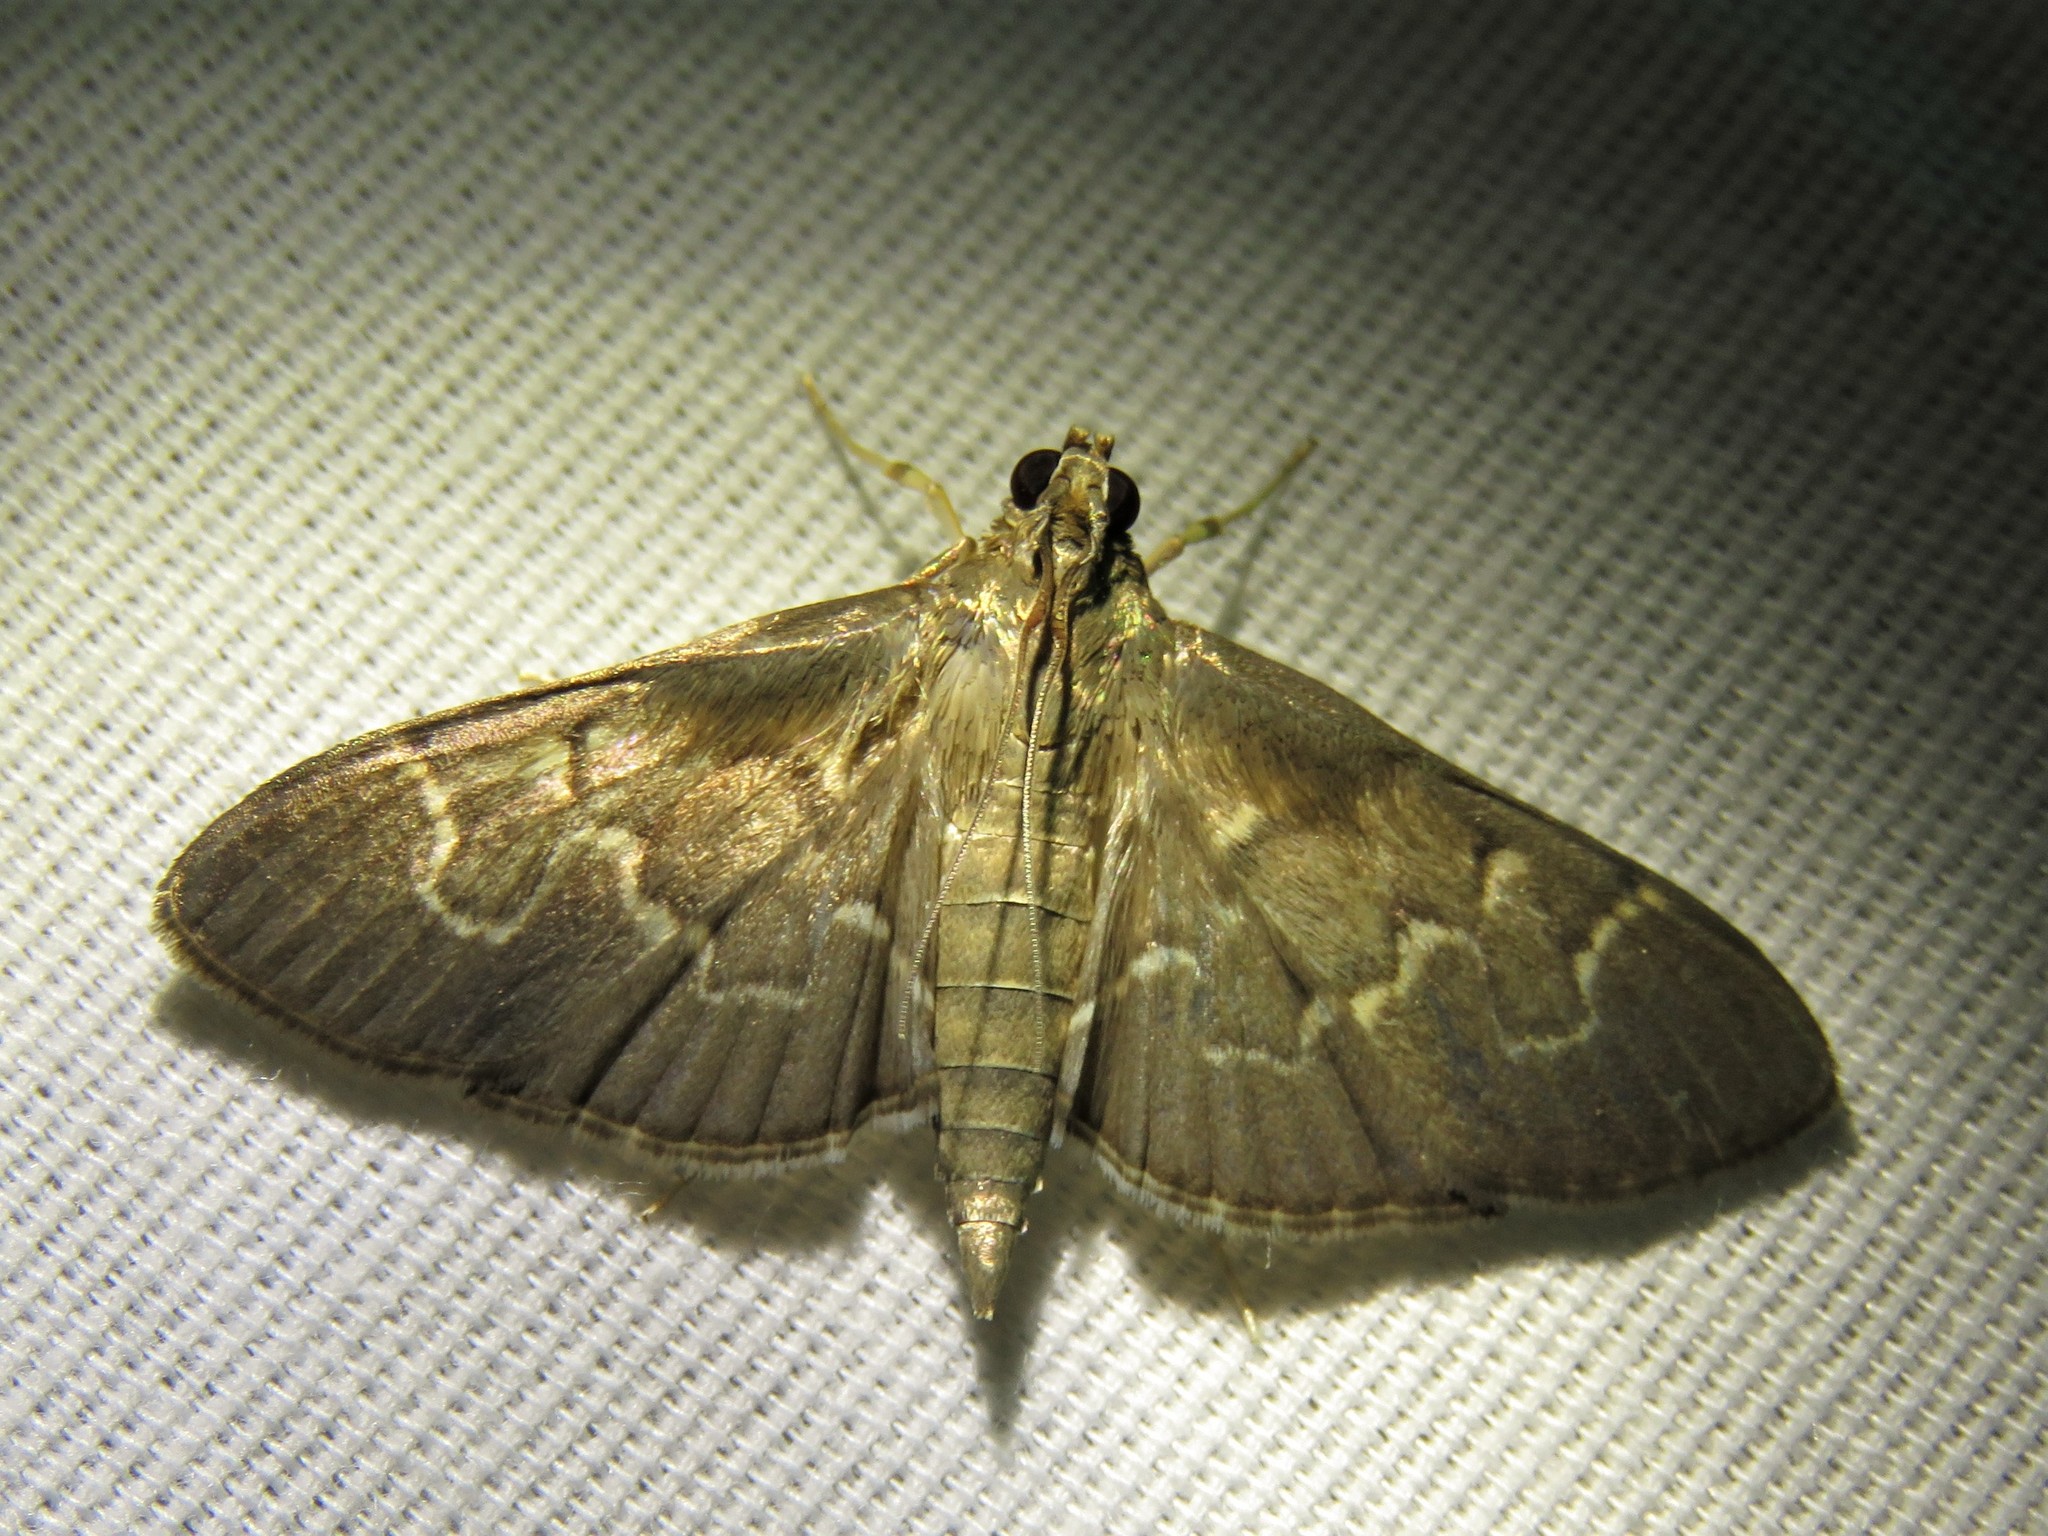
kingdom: Animalia
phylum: Arthropoda
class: Insecta
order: Lepidoptera
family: Crambidae
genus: Pilocrocis
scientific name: Pilocrocis ramentalis
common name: Scraped pilocrocis
